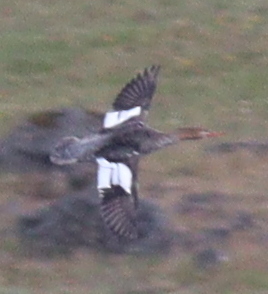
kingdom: Animalia
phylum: Chordata
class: Aves
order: Anseriformes
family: Anatidae
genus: Mergus
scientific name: Mergus serrator
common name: Red-breasted merganser
